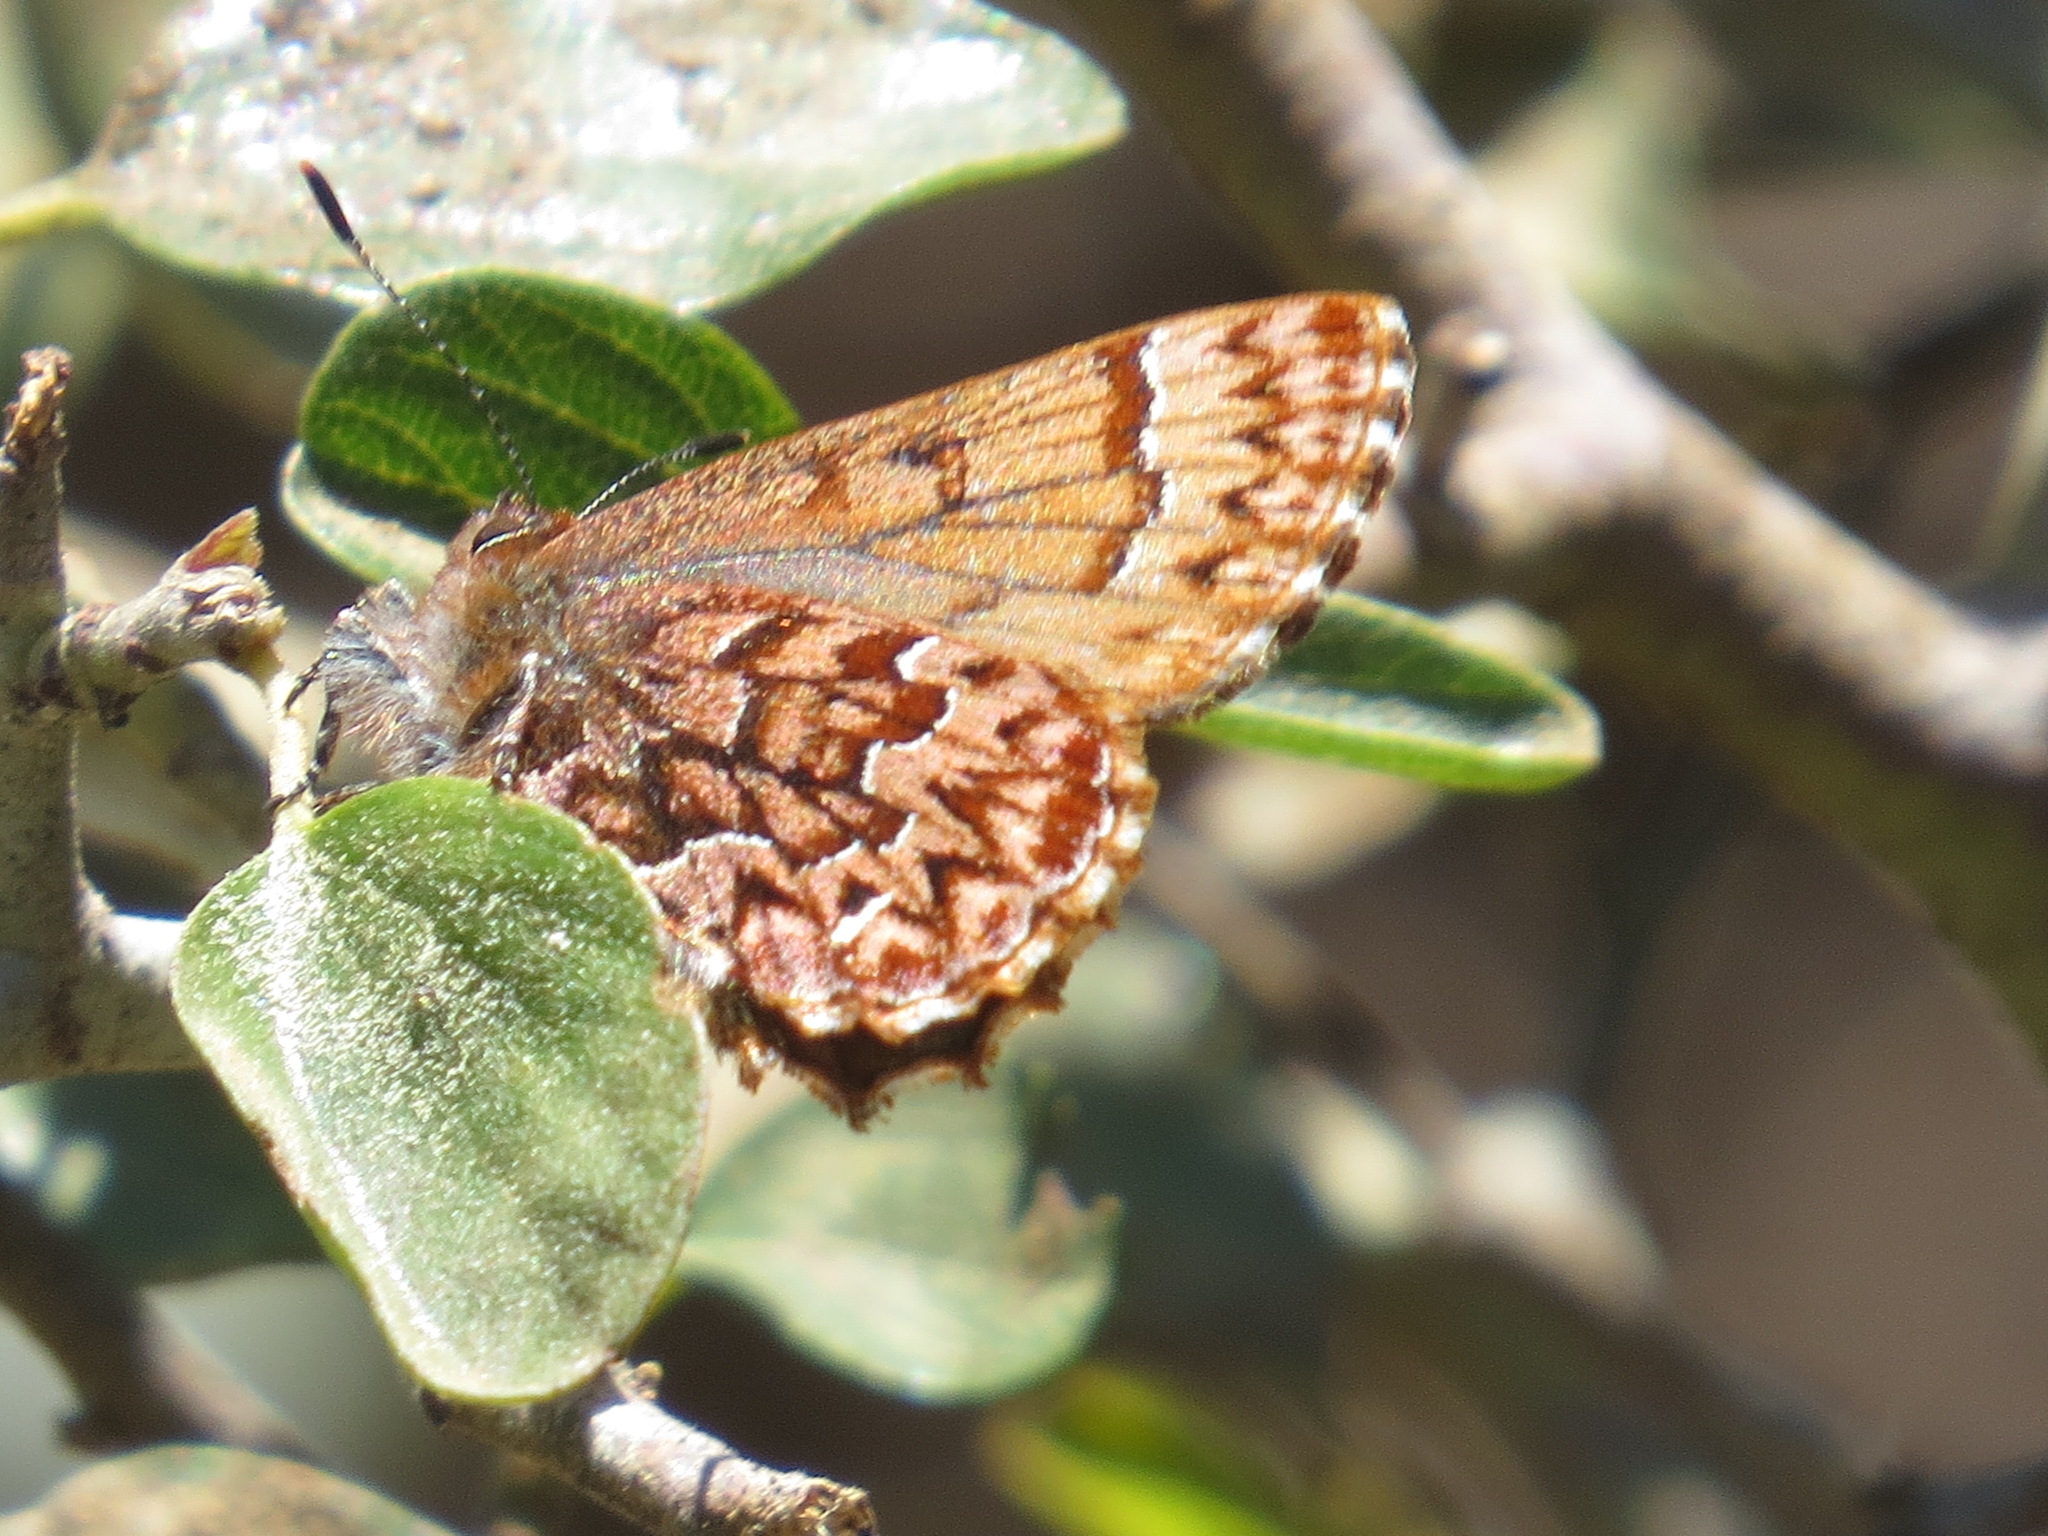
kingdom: Animalia
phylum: Arthropoda
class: Insecta
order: Lepidoptera
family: Lycaenidae
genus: Incisalia
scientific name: Incisalia eryphon
